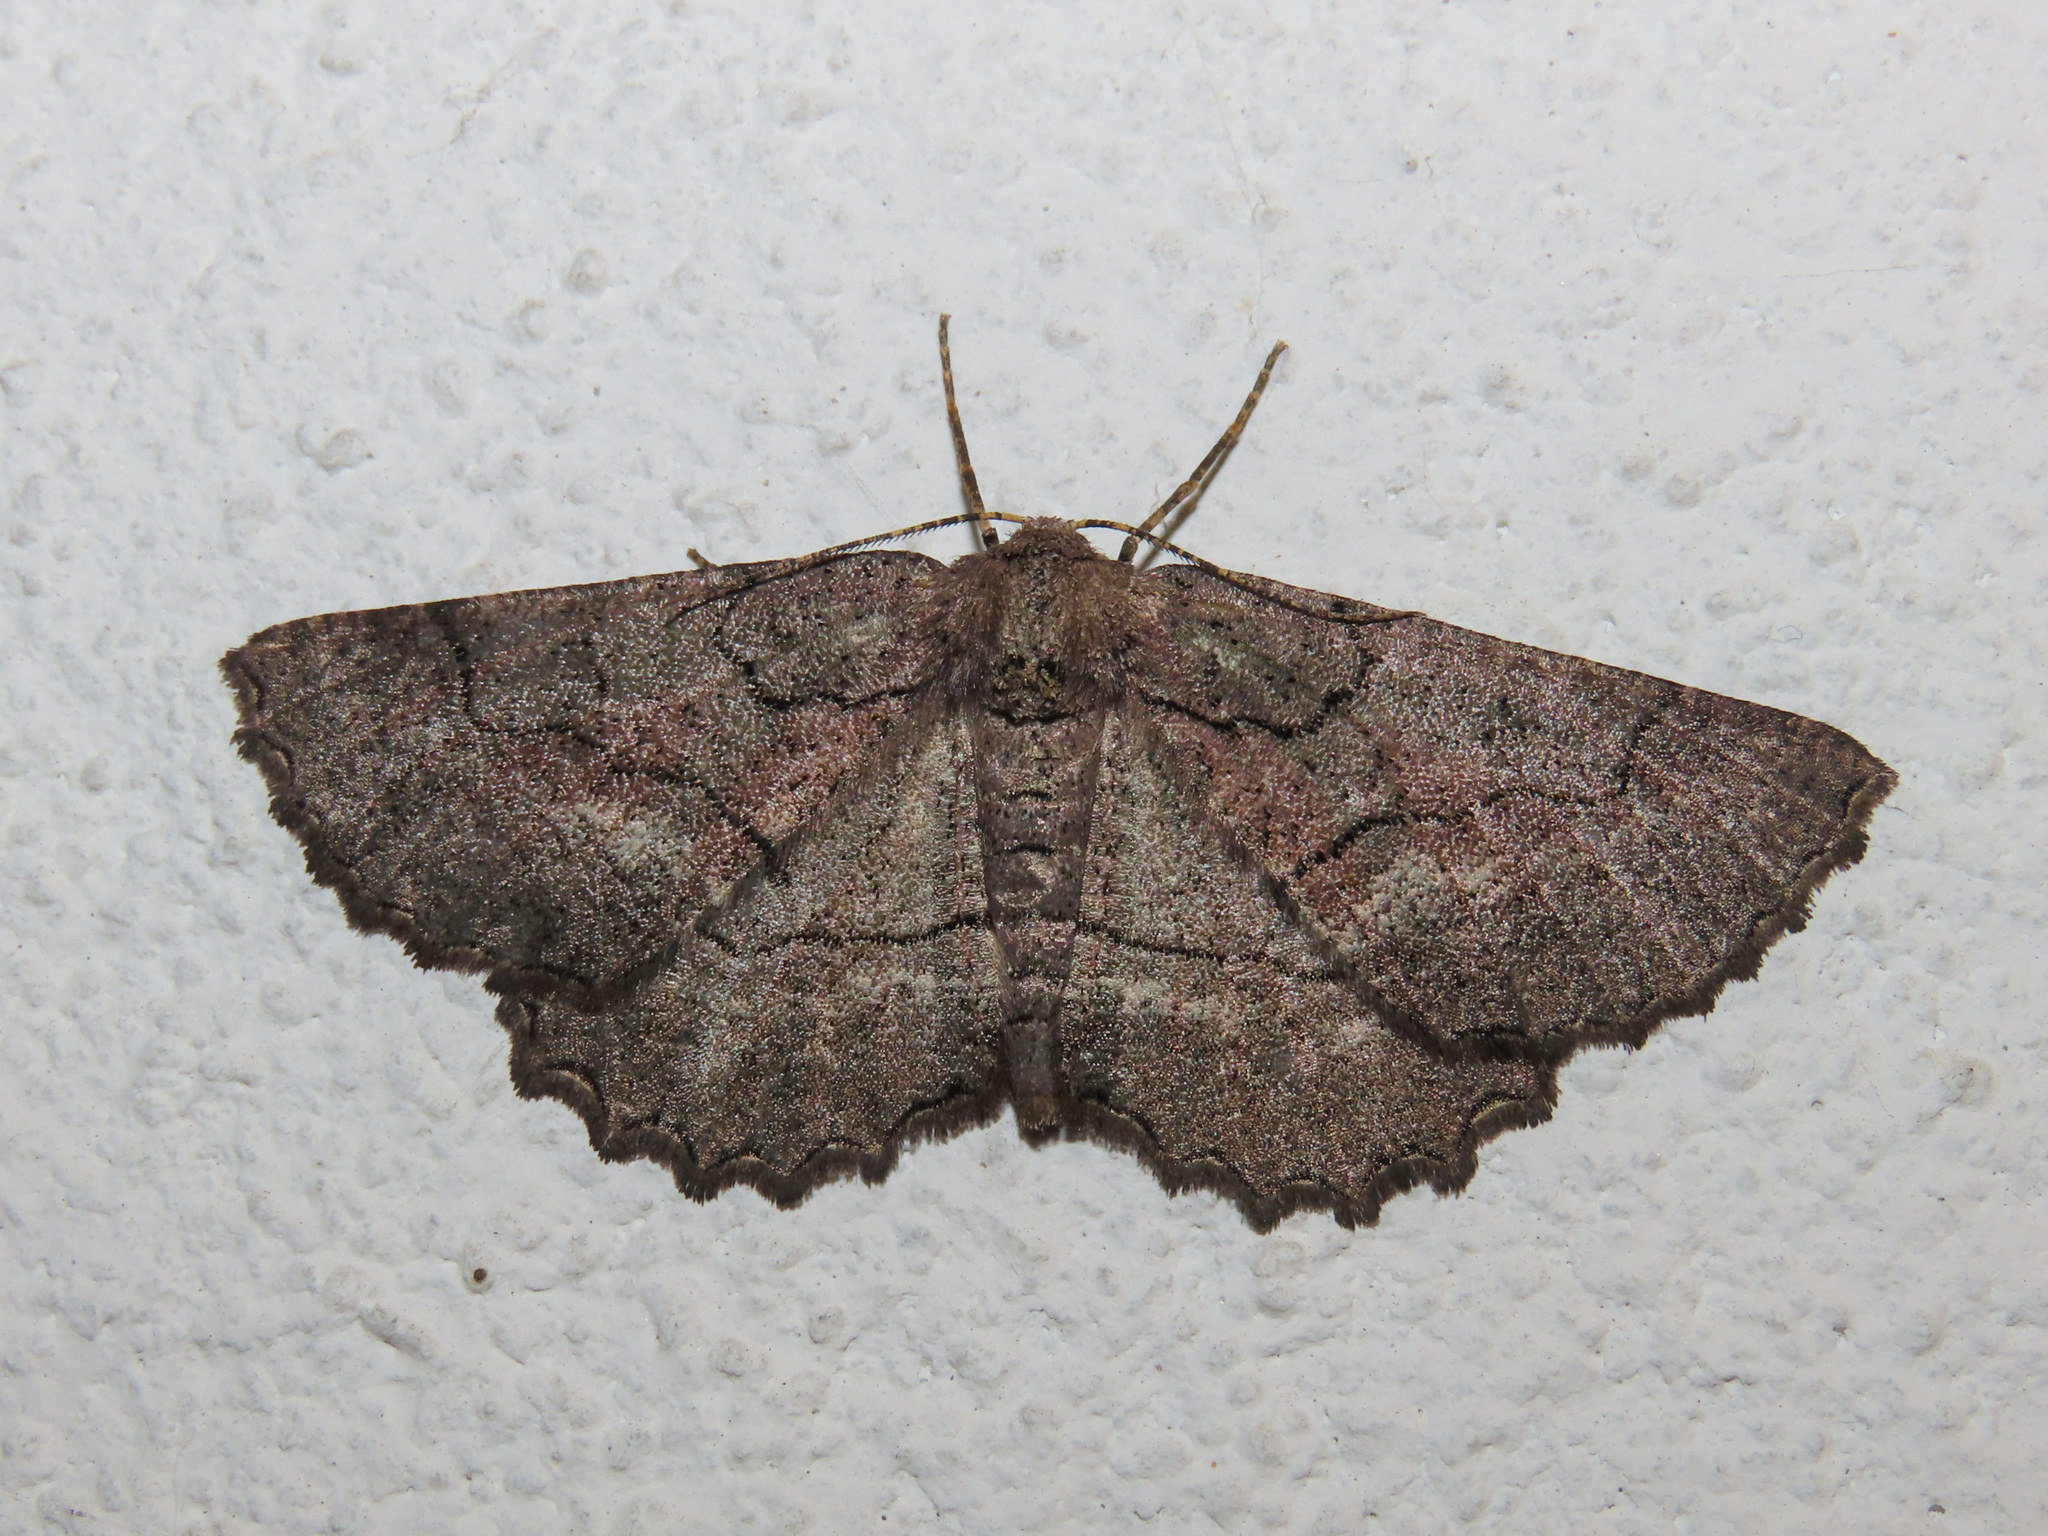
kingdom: Animalia
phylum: Arthropoda
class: Insecta
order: Lepidoptera
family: Geometridae
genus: Nychiodes
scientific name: Nychiodes obscuraria
